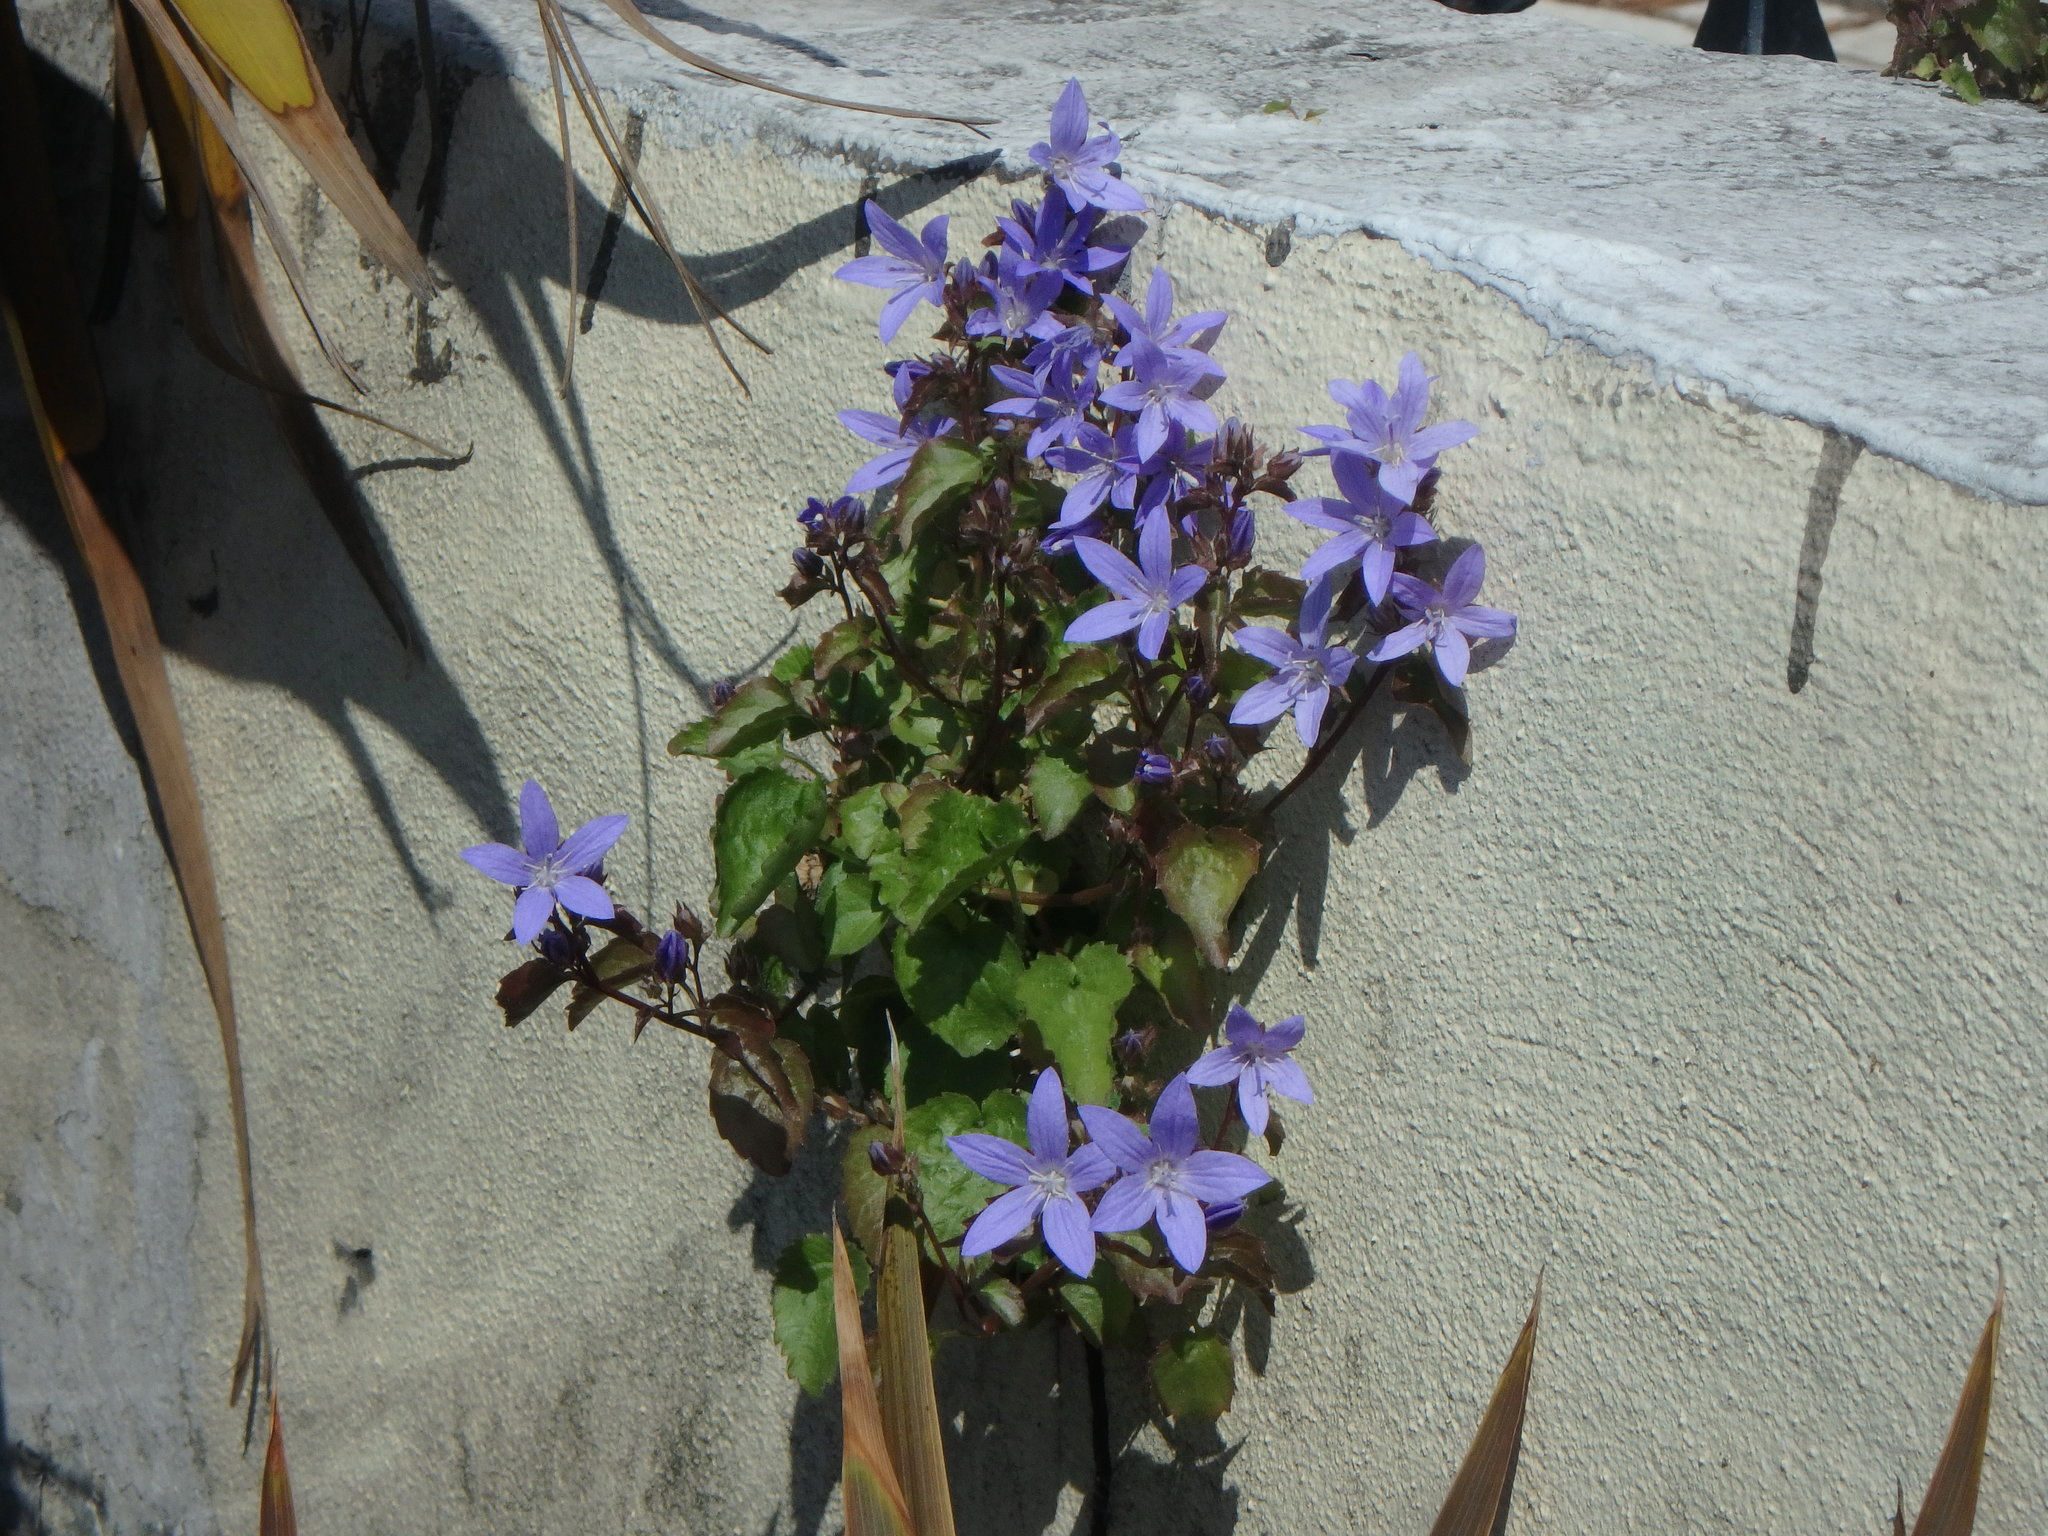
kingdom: Plantae
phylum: Tracheophyta
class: Magnoliopsida
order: Asterales
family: Campanulaceae
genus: Campanula
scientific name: Campanula poscharskyana
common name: Trailing bellflower
